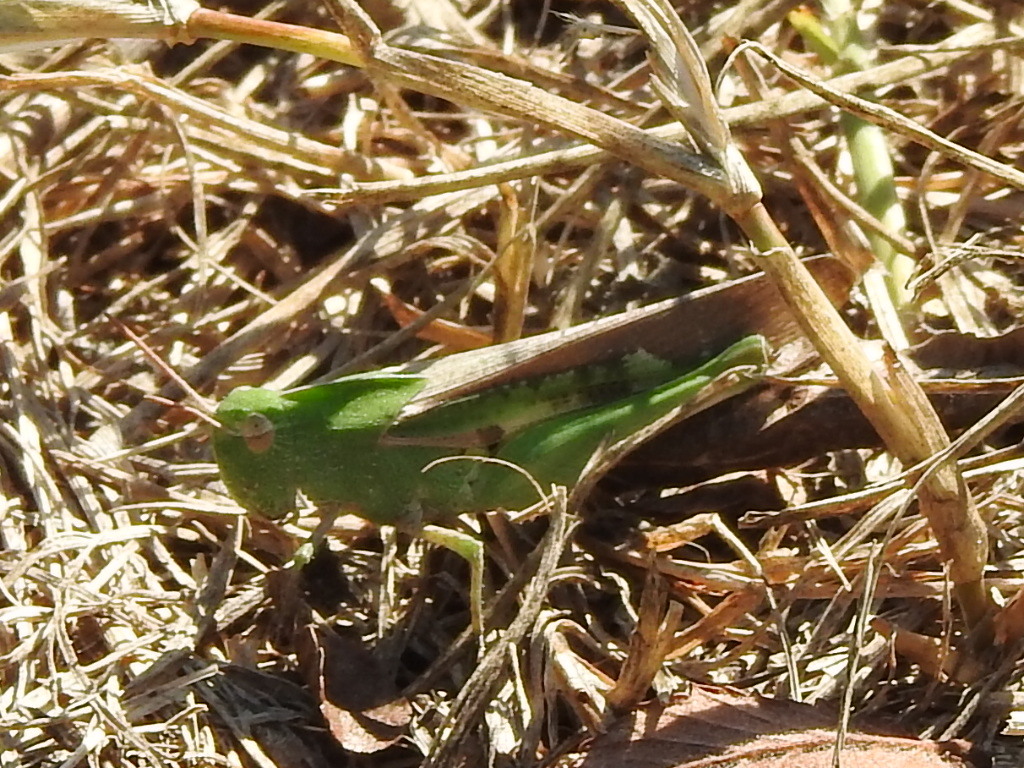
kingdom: Animalia
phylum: Arthropoda
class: Insecta
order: Orthoptera
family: Acrididae
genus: Chortophaga
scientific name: Chortophaga viridifasciata
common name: Green-striped grasshopper
